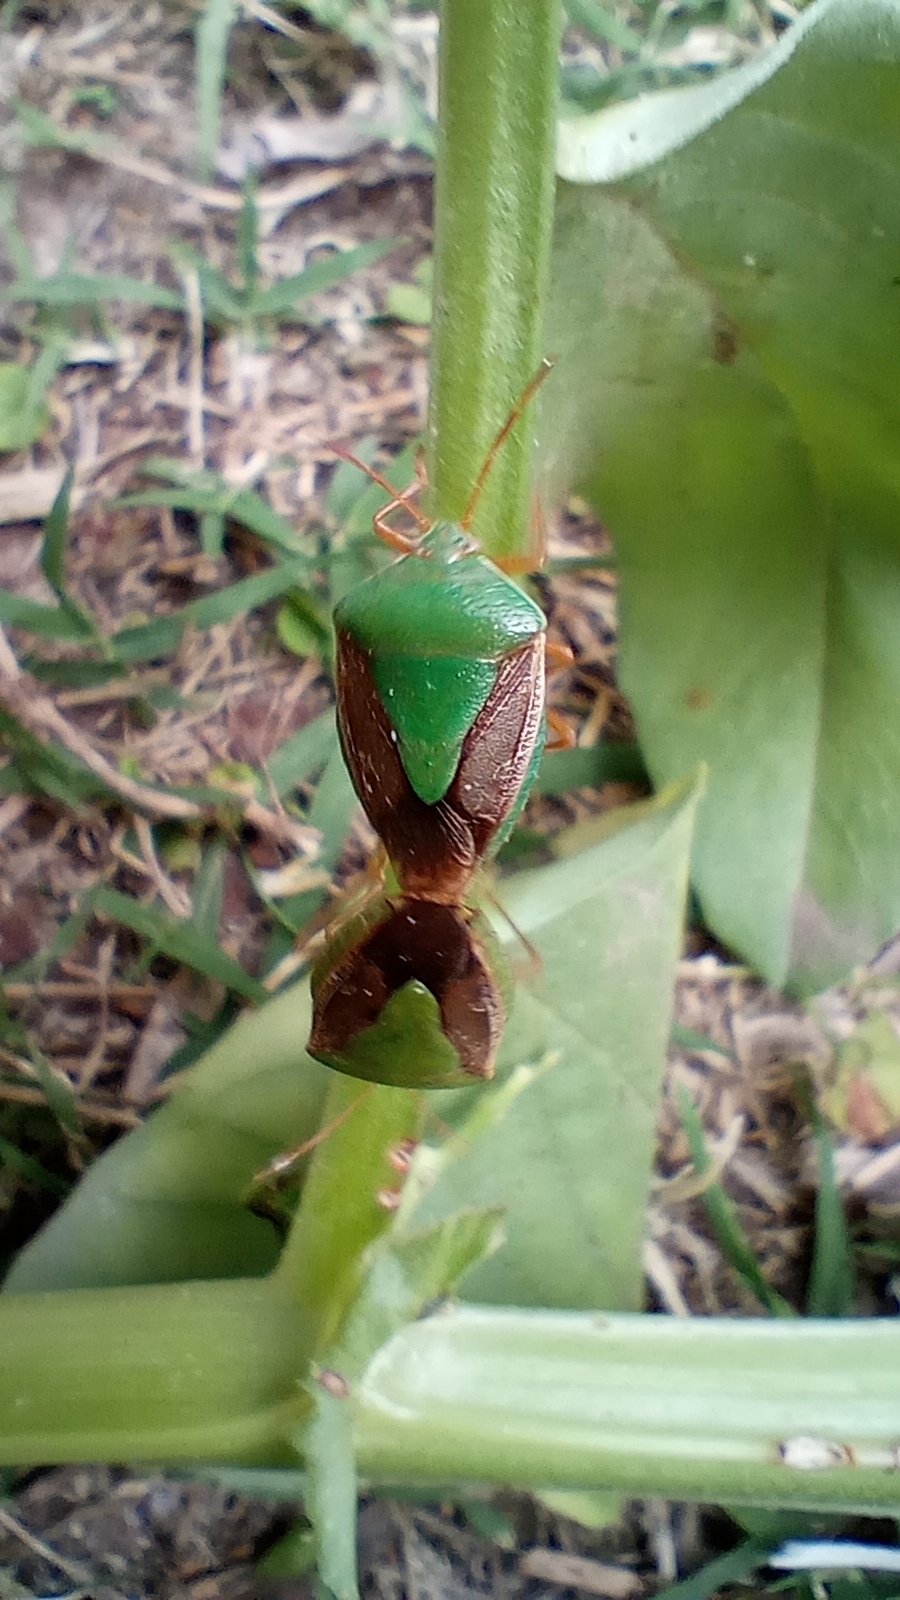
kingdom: Animalia
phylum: Arthropoda
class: Insecta
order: Hemiptera
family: Pentatomidae
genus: Edessa
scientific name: Edessa meditabunda
